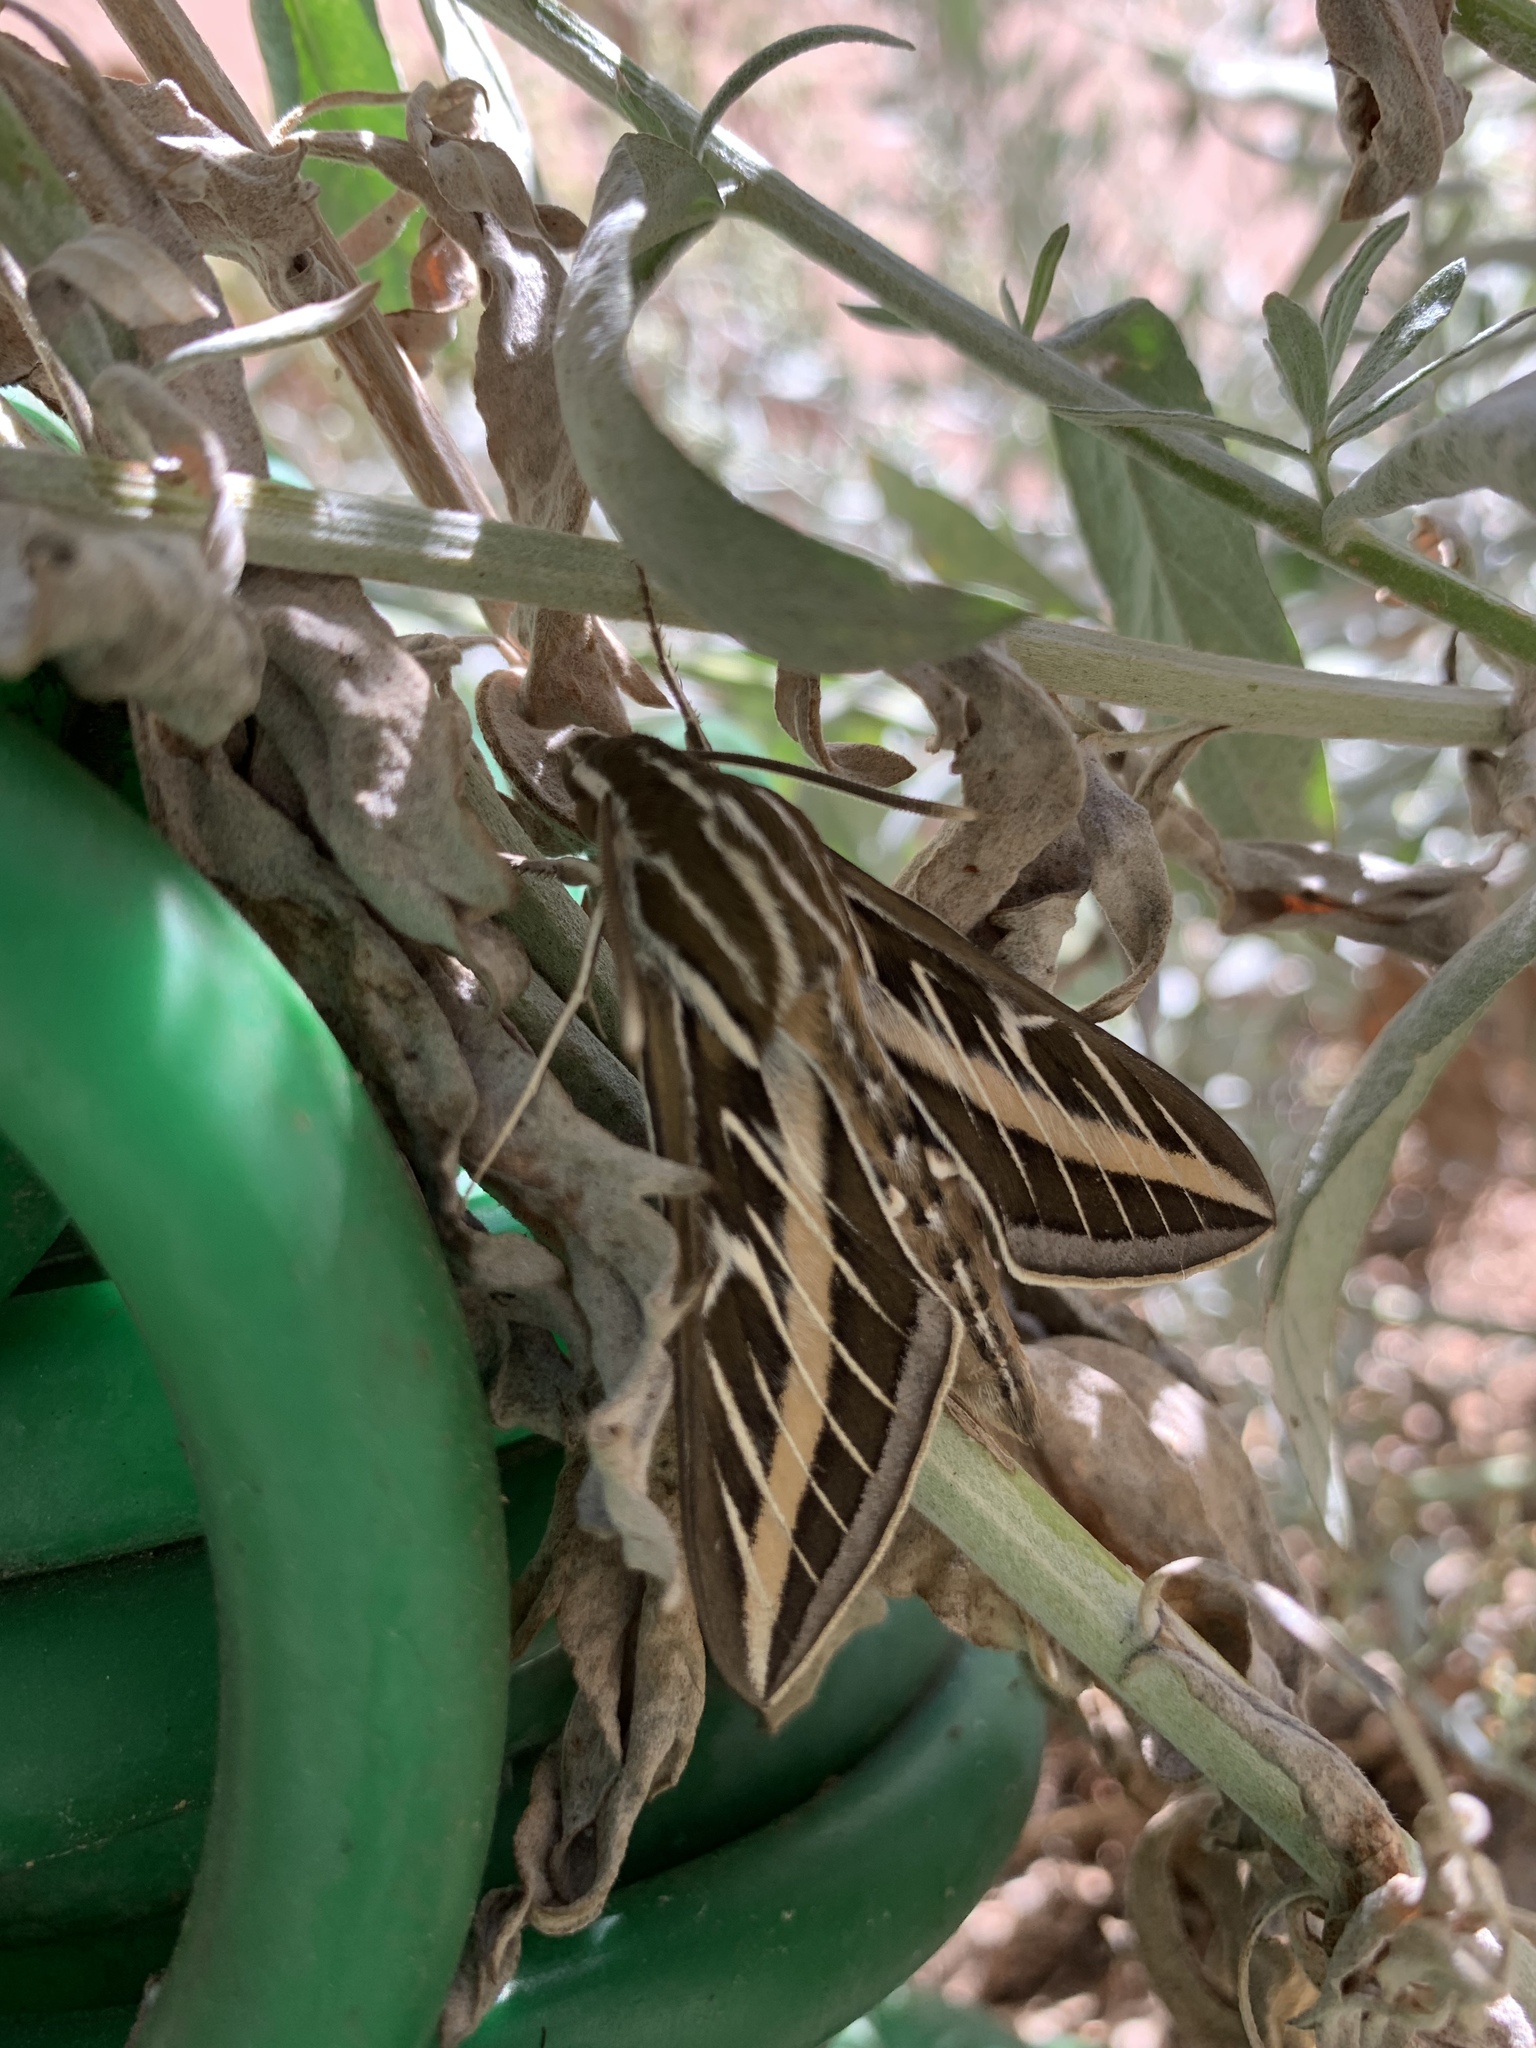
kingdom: Animalia
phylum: Arthropoda
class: Insecta
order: Lepidoptera
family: Sphingidae
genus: Hyles
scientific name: Hyles lineata
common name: White-lined sphinx
